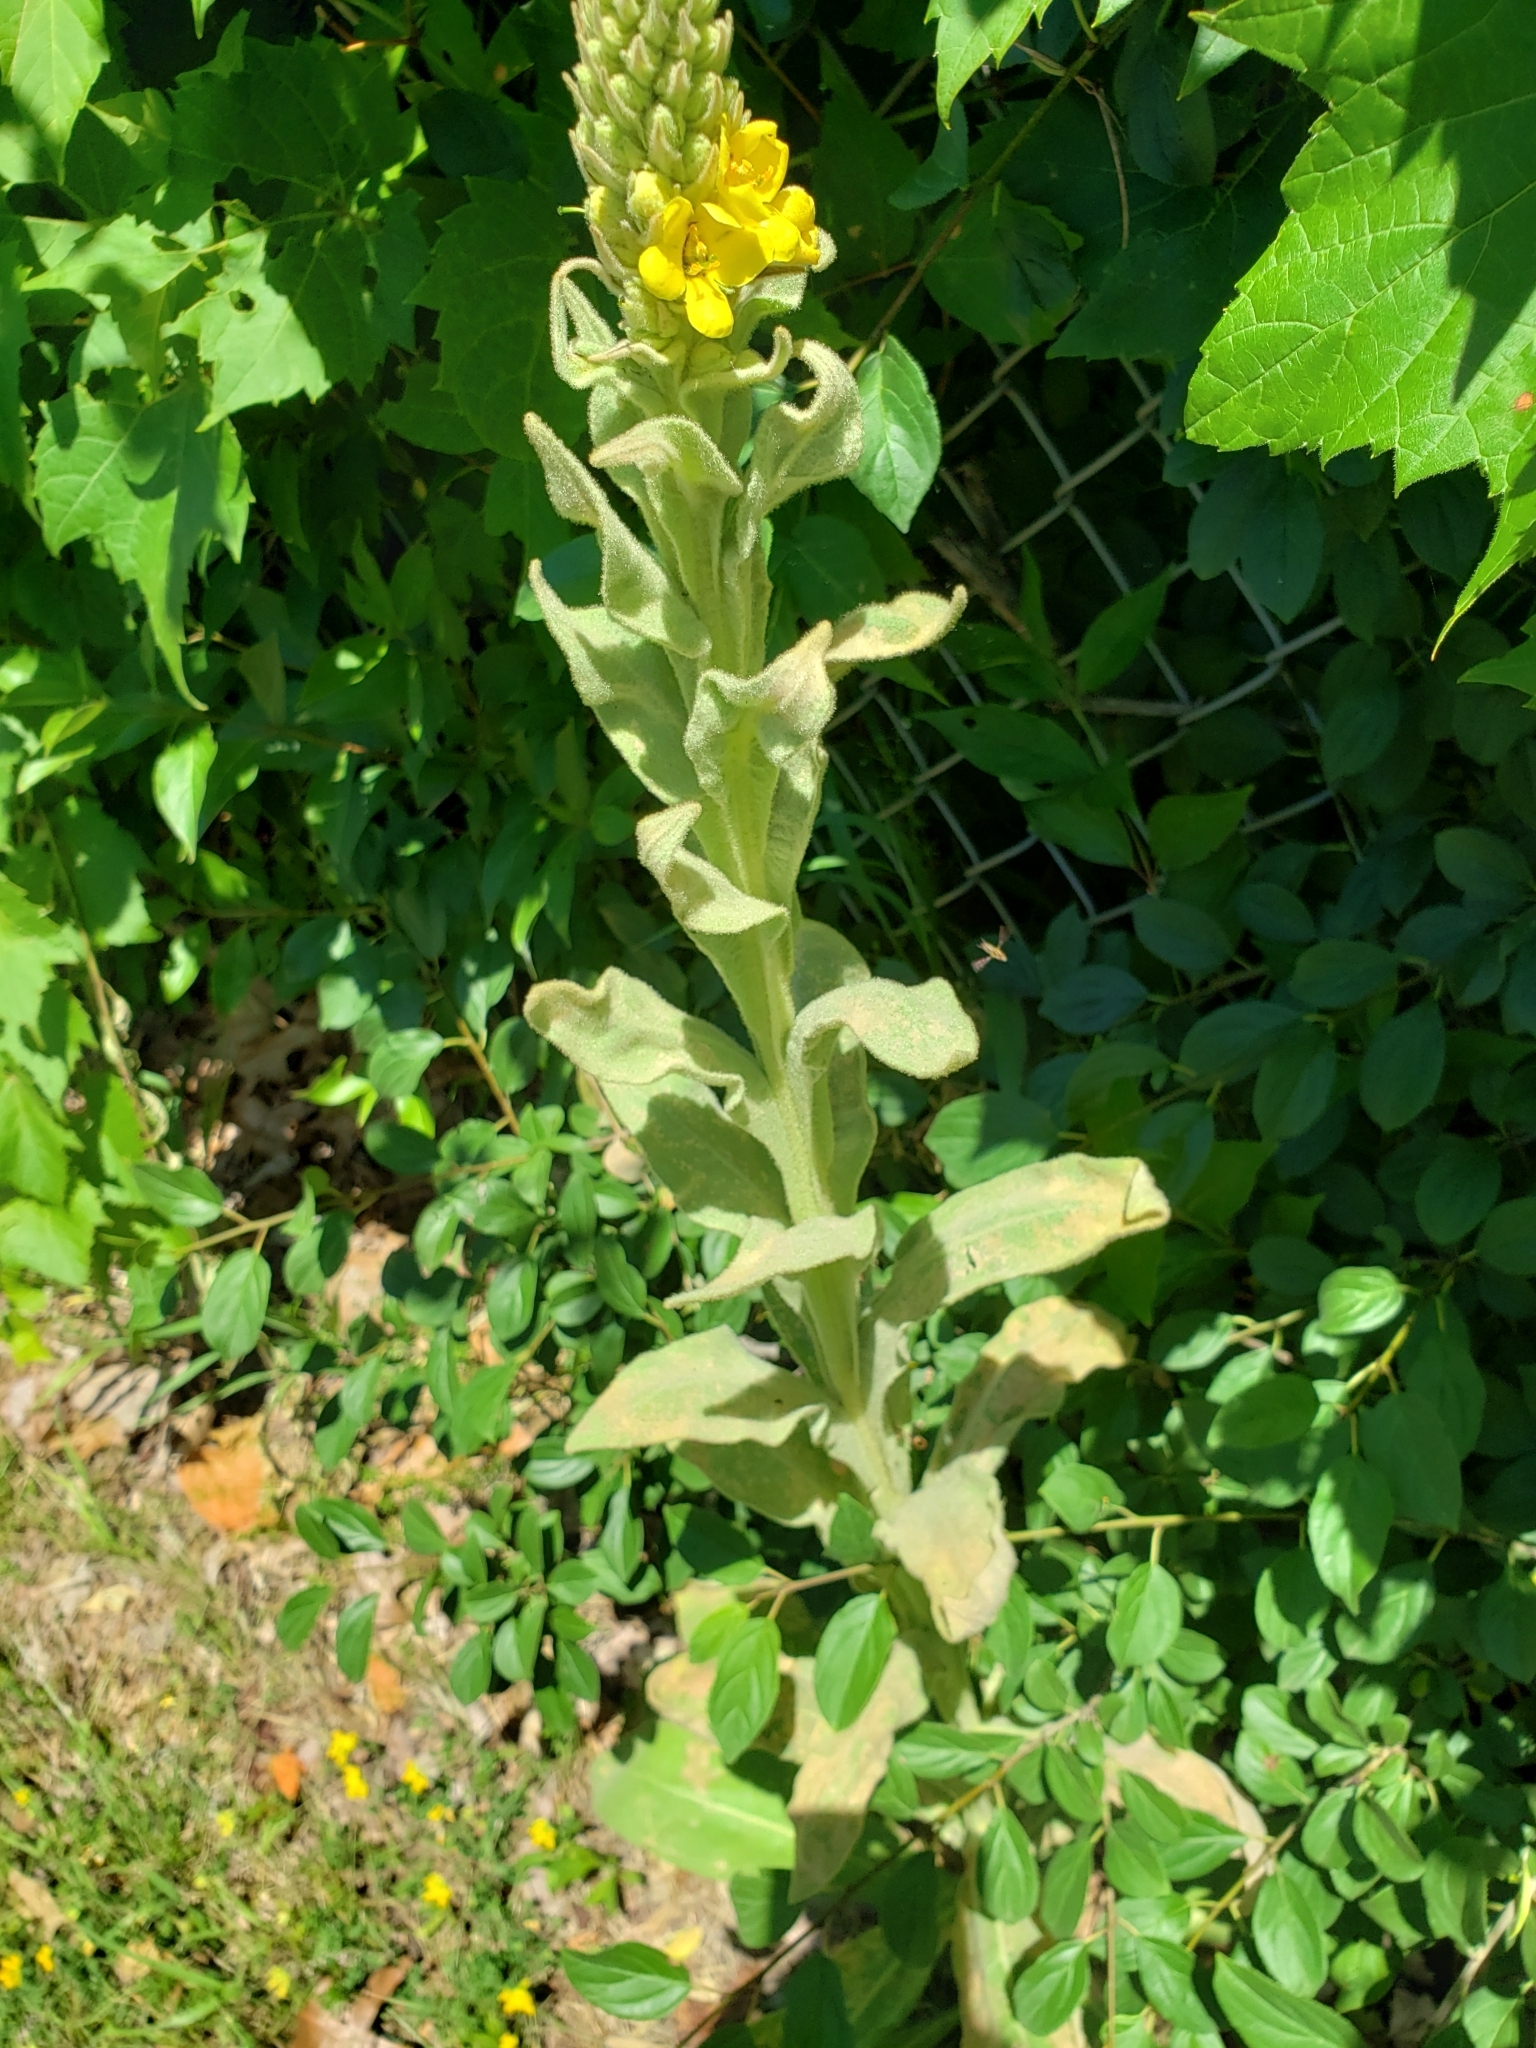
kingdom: Plantae
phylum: Tracheophyta
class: Magnoliopsida
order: Lamiales
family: Scrophulariaceae
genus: Verbascum
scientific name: Verbascum thapsus
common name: Common mullein
